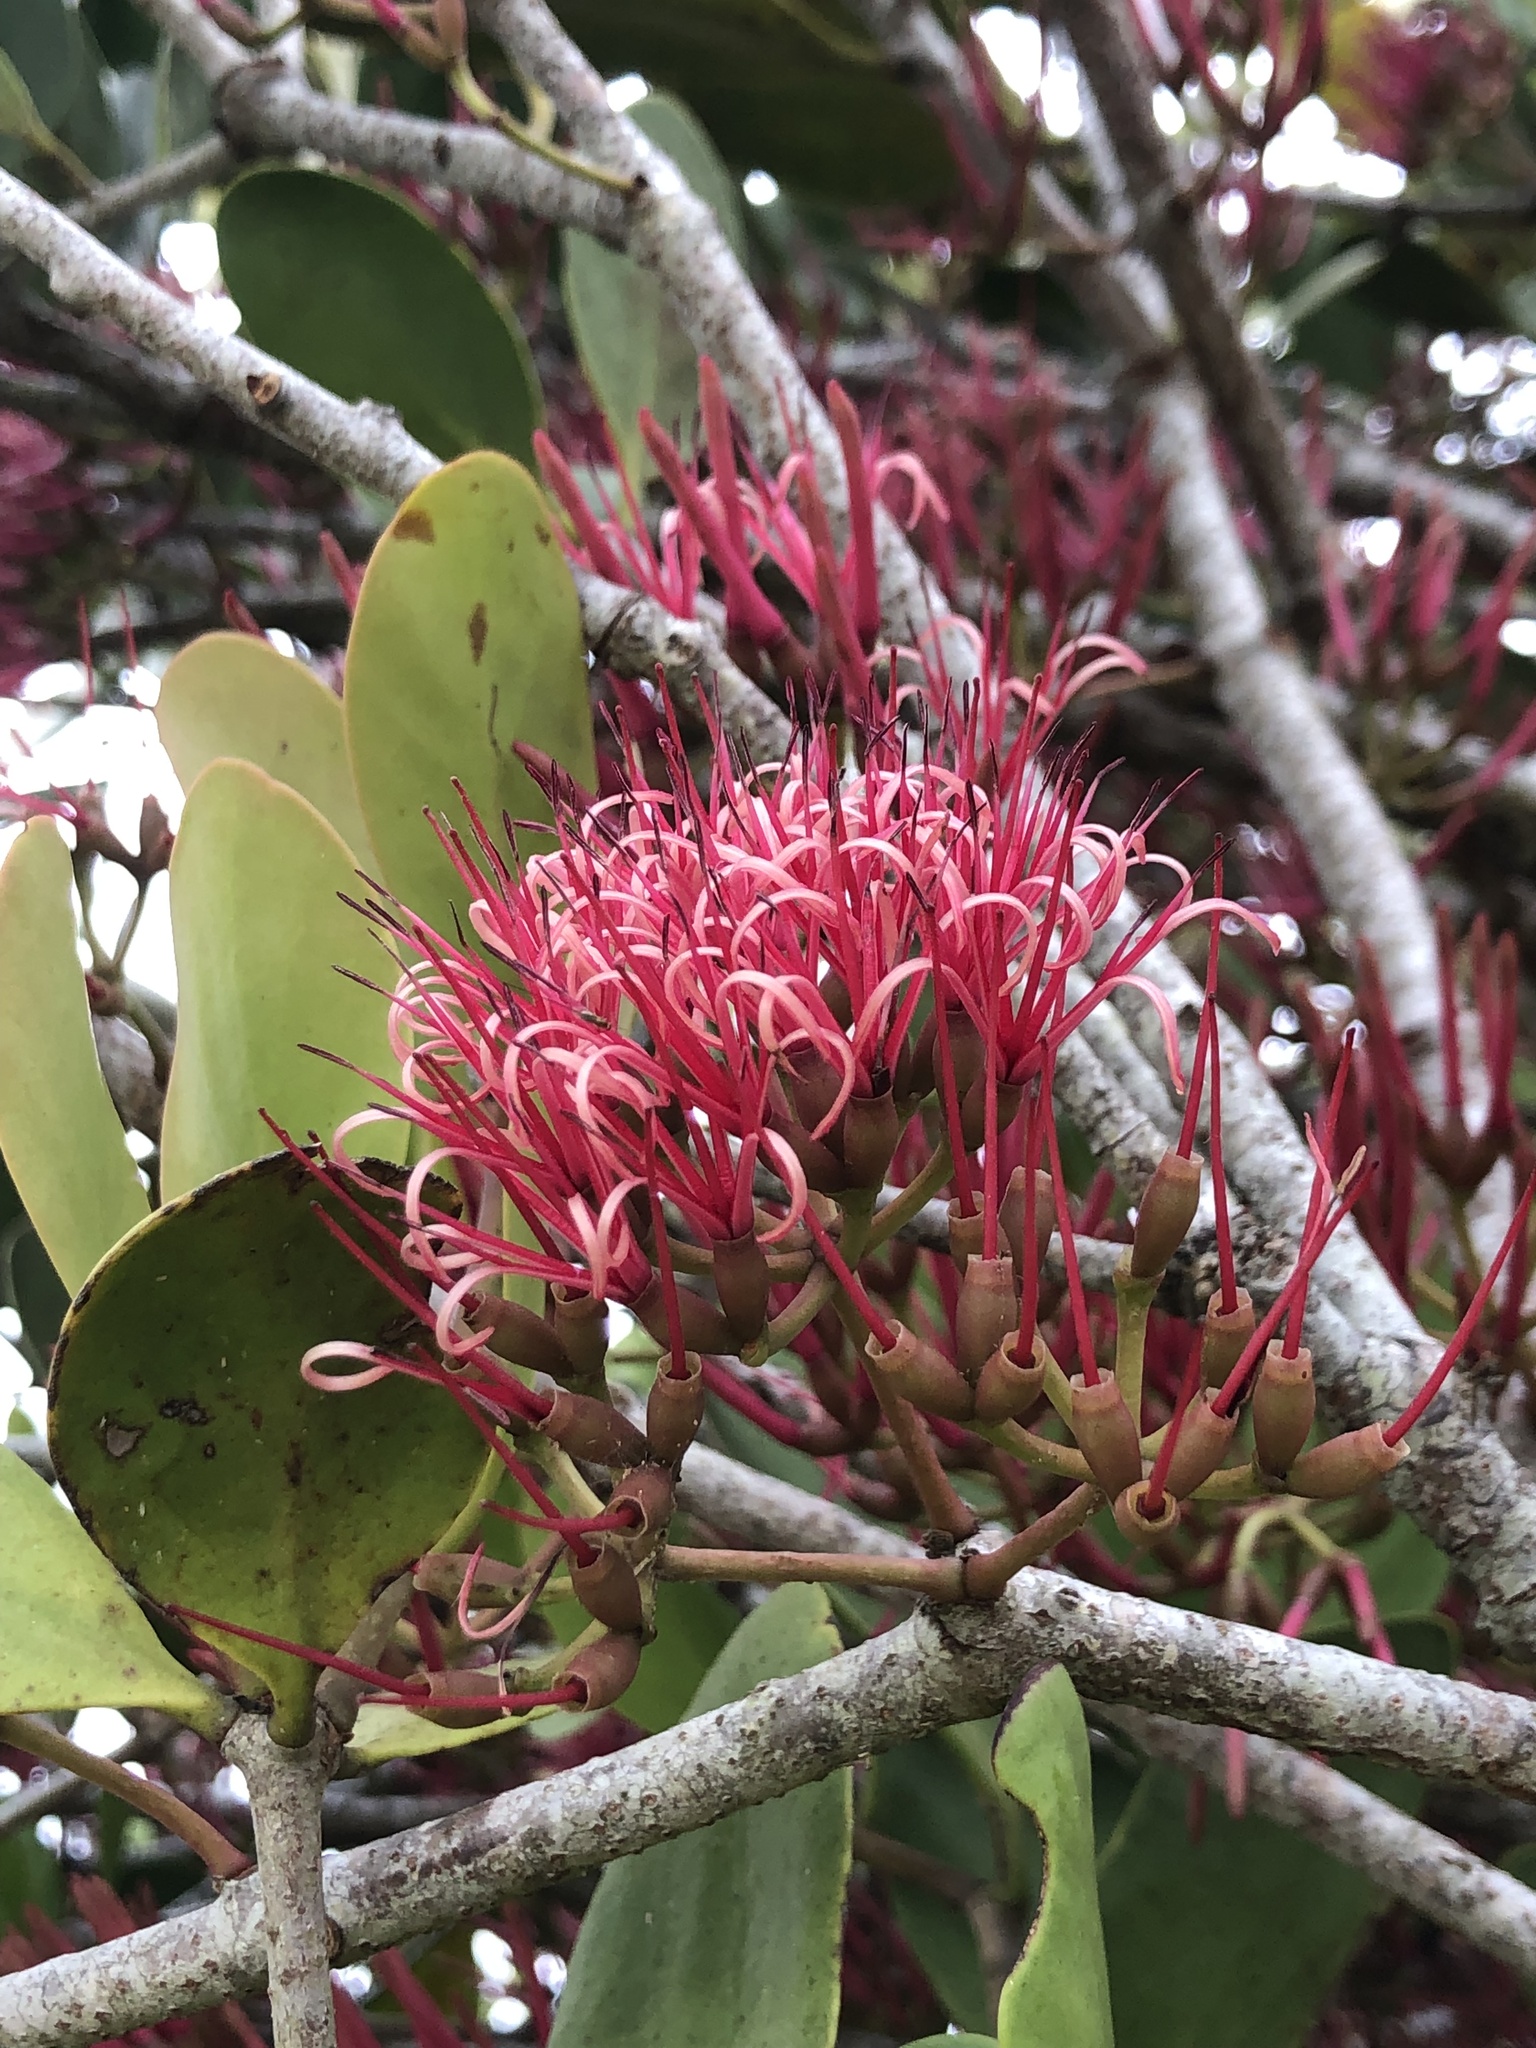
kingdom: Plantae
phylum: Tracheophyta
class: Magnoliopsida
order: Santalales
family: Loranthaceae
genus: Amyema
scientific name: Amyema plicatula
